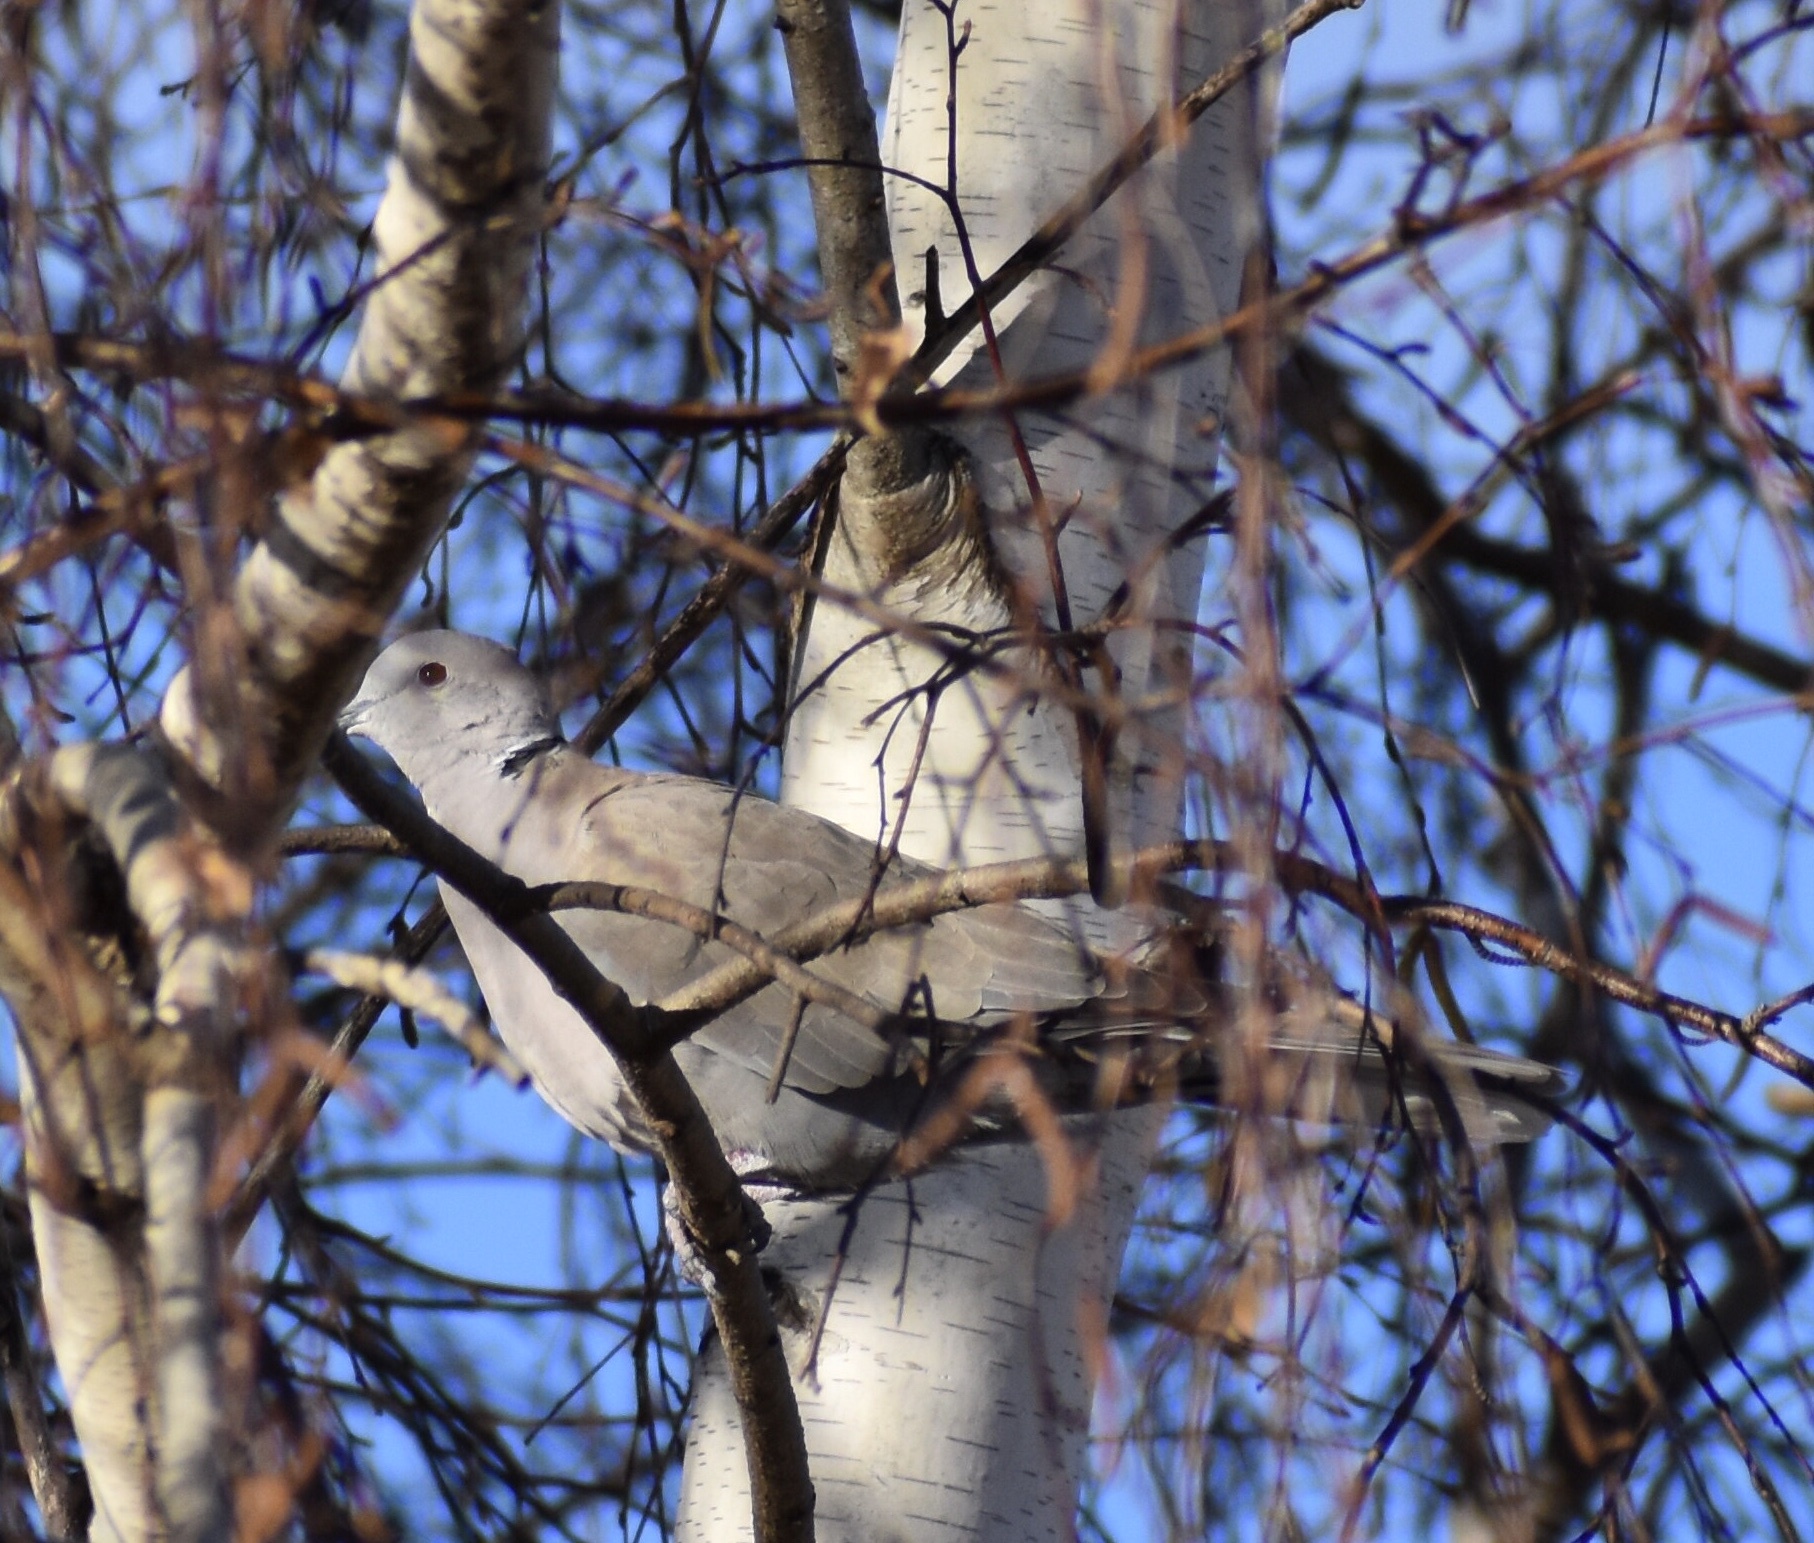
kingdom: Animalia
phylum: Chordata
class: Aves
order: Columbiformes
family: Columbidae
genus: Streptopelia
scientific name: Streptopelia decaocto
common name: Eurasian collared dove
